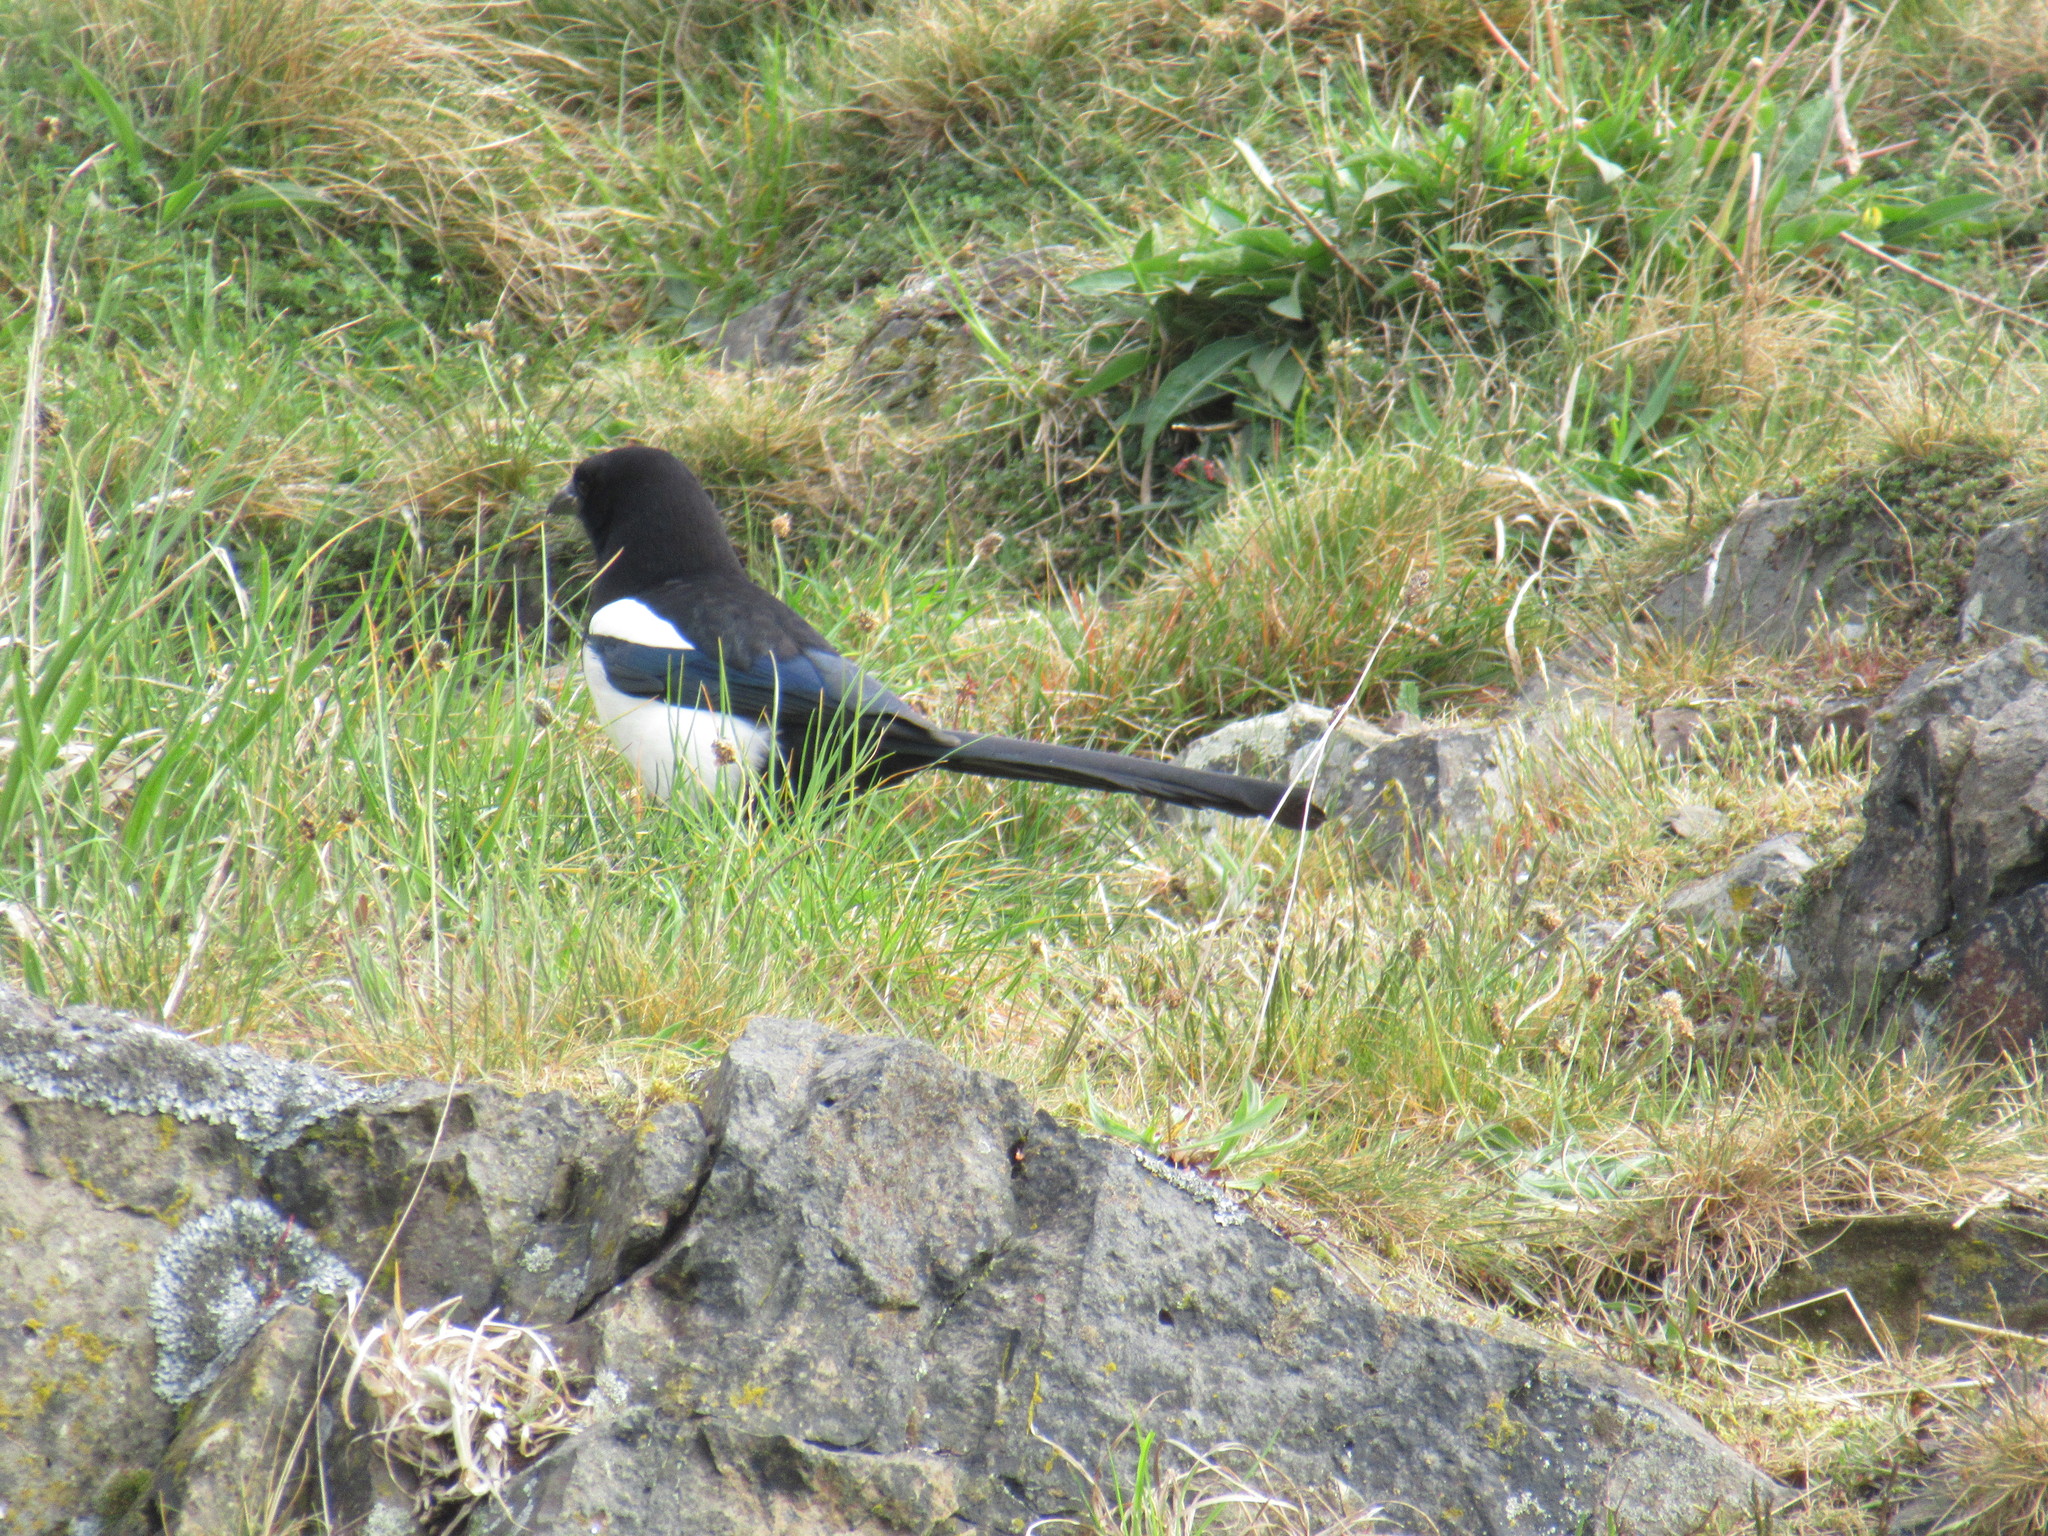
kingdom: Animalia
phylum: Chordata
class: Aves
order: Passeriformes
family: Corvidae
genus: Pica
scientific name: Pica pica
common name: Eurasian magpie
